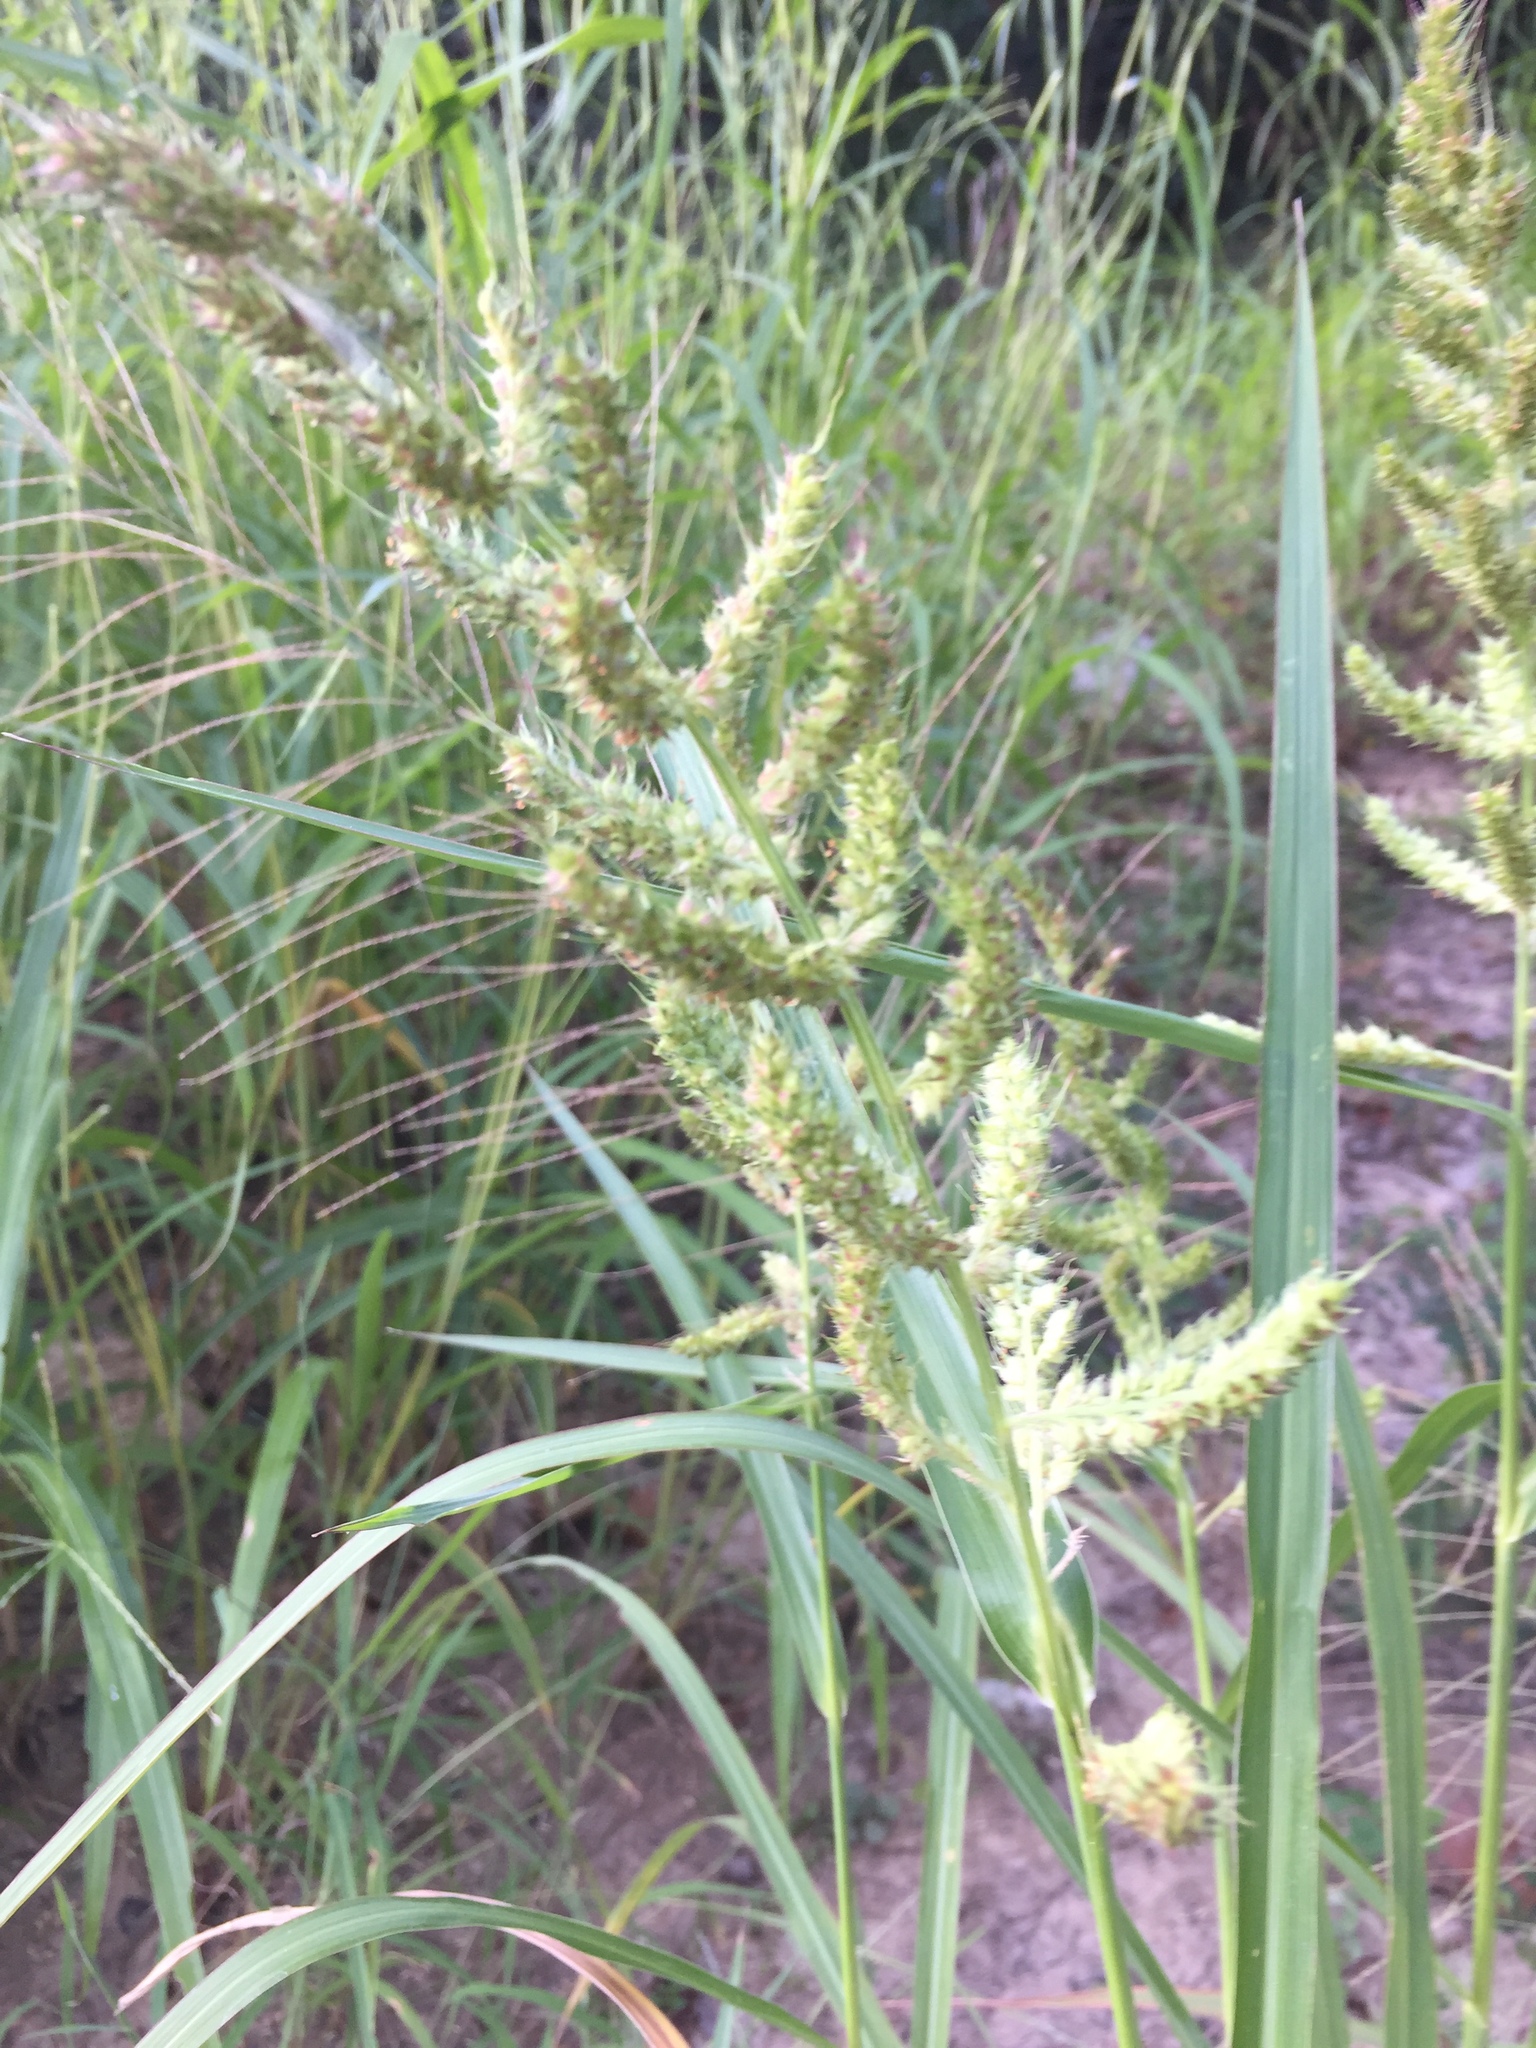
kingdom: Plantae
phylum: Tracheophyta
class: Liliopsida
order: Poales
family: Poaceae
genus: Echinochloa
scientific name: Echinochloa crus-galli
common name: Cockspur
